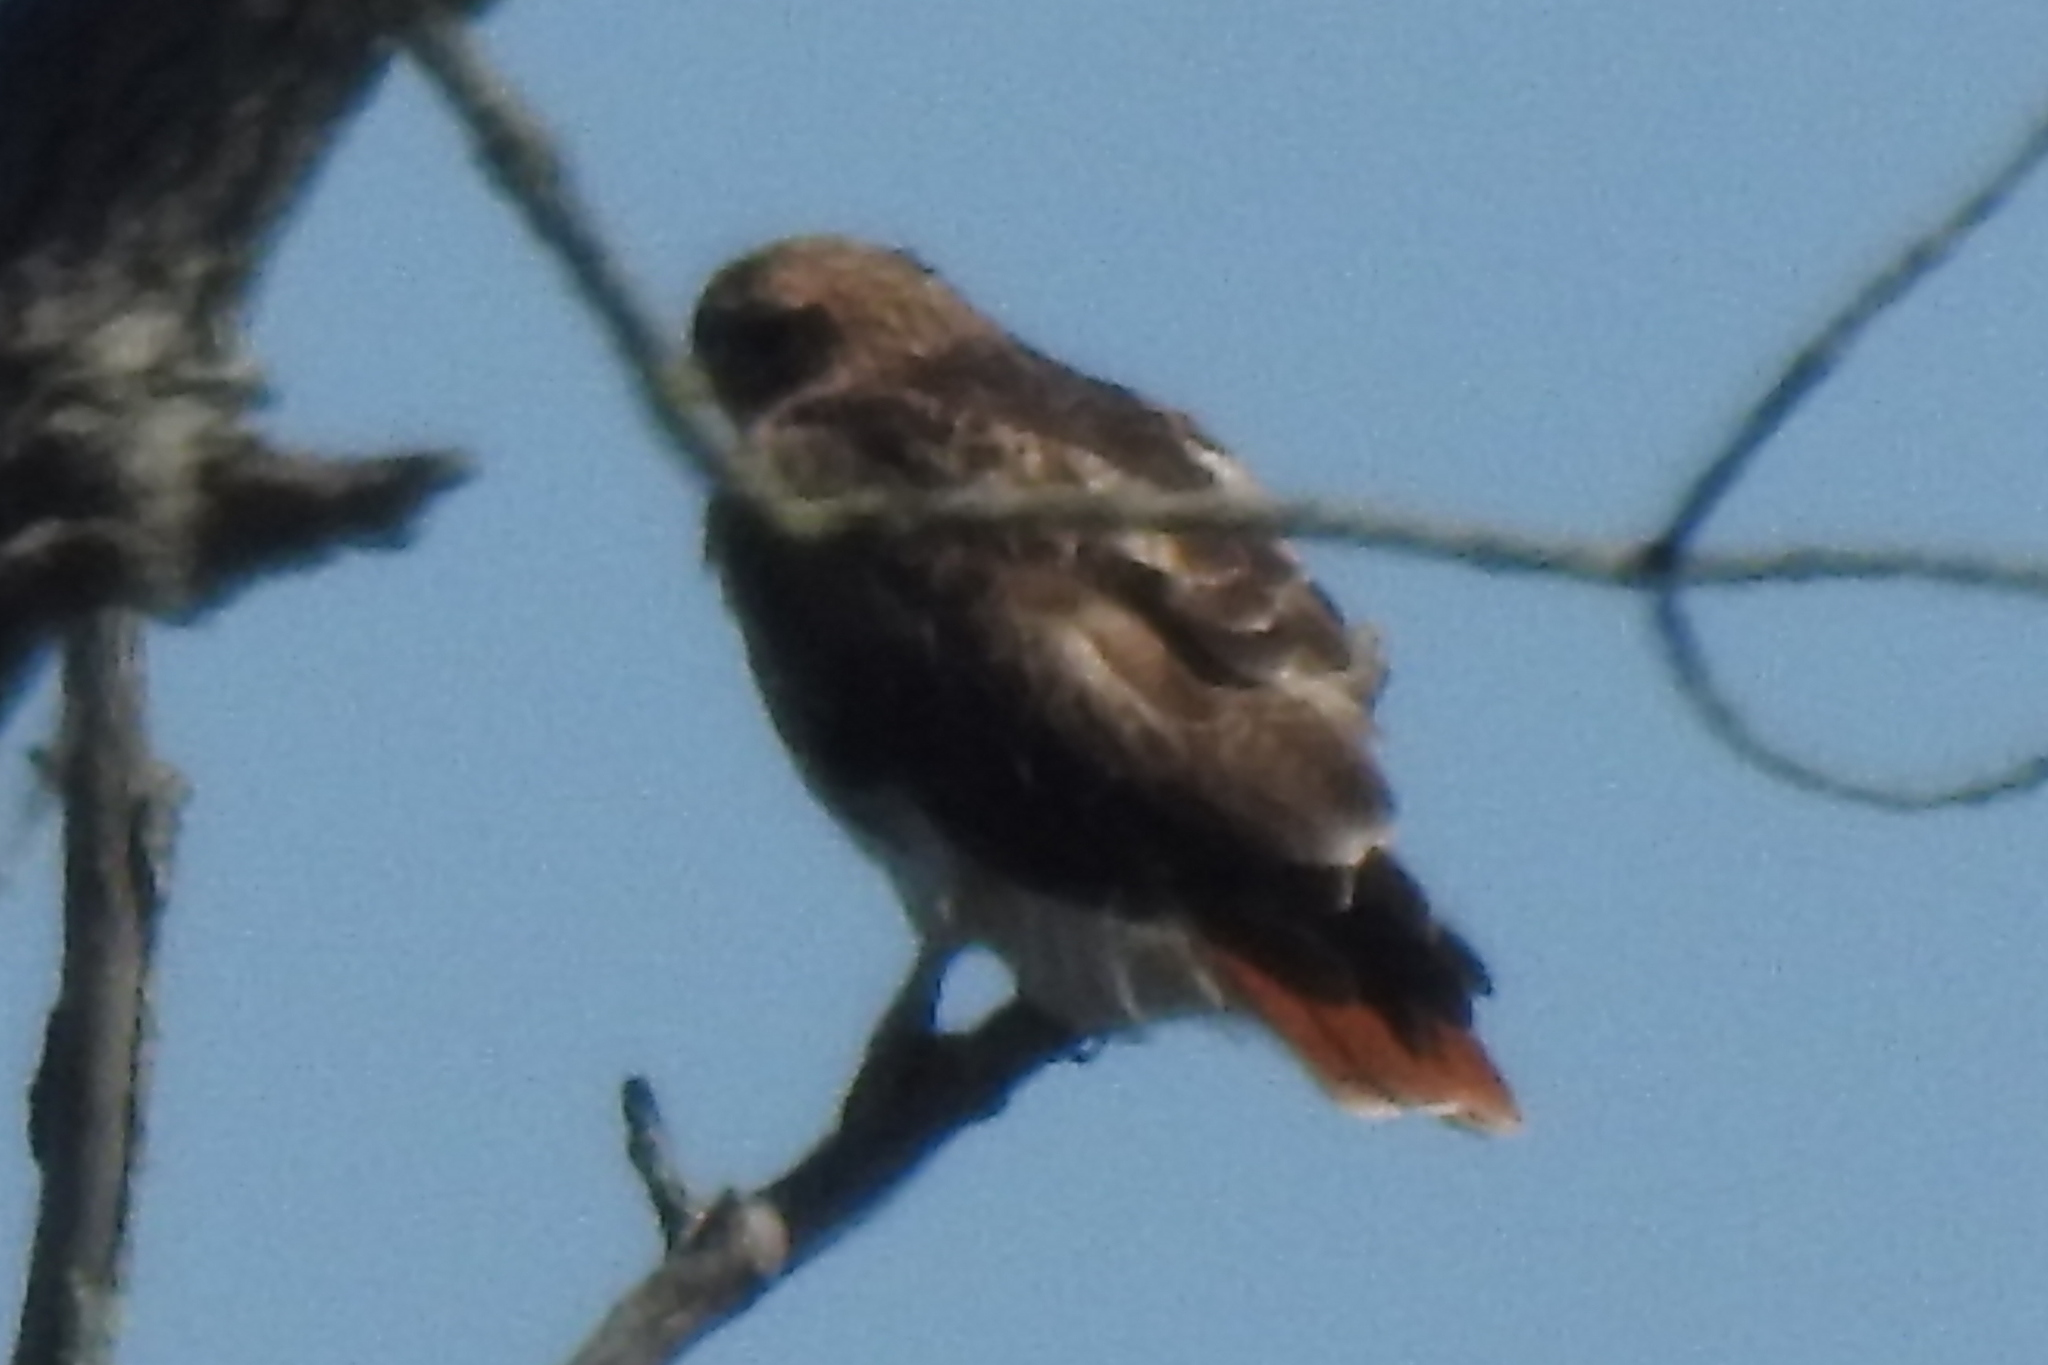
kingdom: Animalia
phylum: Chordata
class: Aves
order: Accipitriformes
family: Accipitridae
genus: Buteo
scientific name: Buteo jamaicensis
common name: Red-tailed hawk
